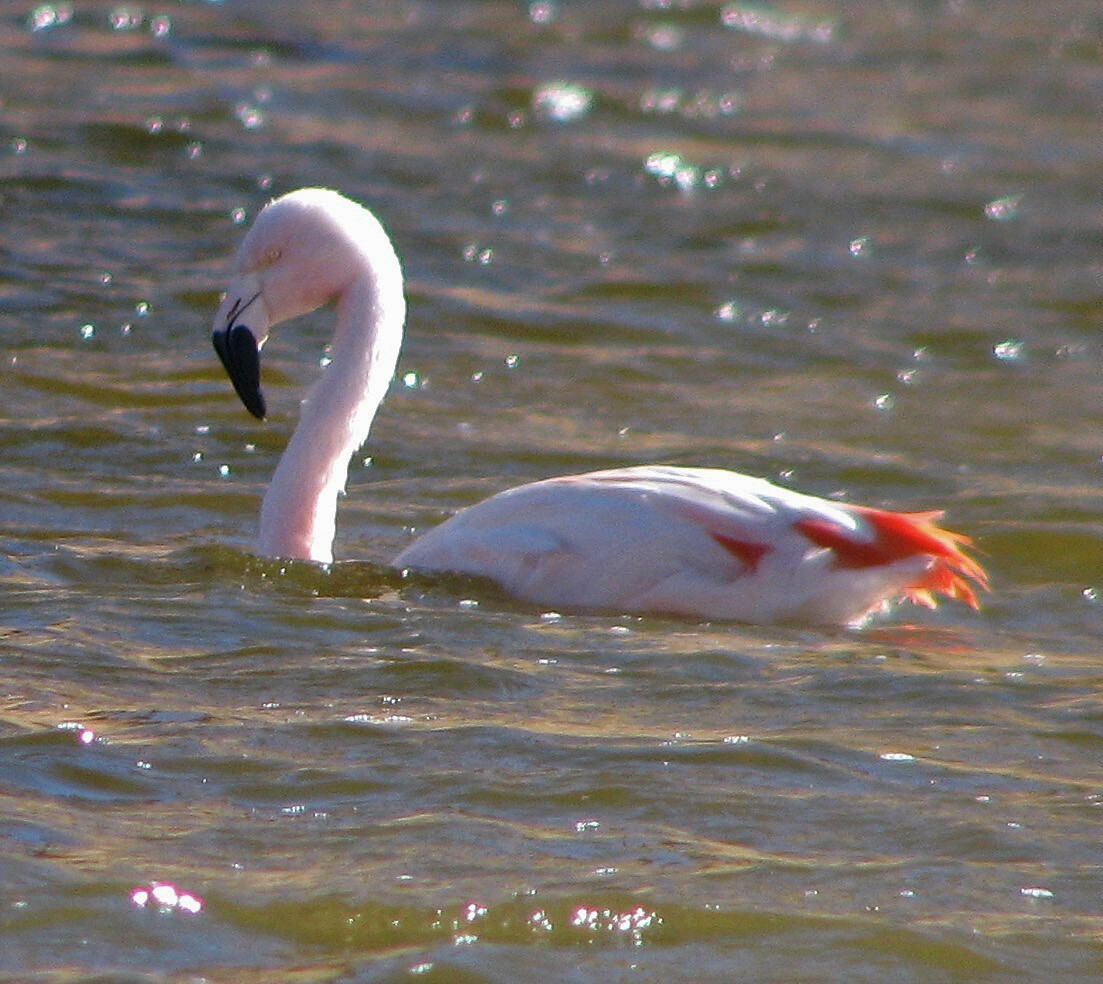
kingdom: Animalia
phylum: Chordata
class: Aves
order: Phoenicopteriformes
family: Phoenicopteridae
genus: Phoenicopterus
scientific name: Phoenicopterus chilensis
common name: Chilean flamingo
